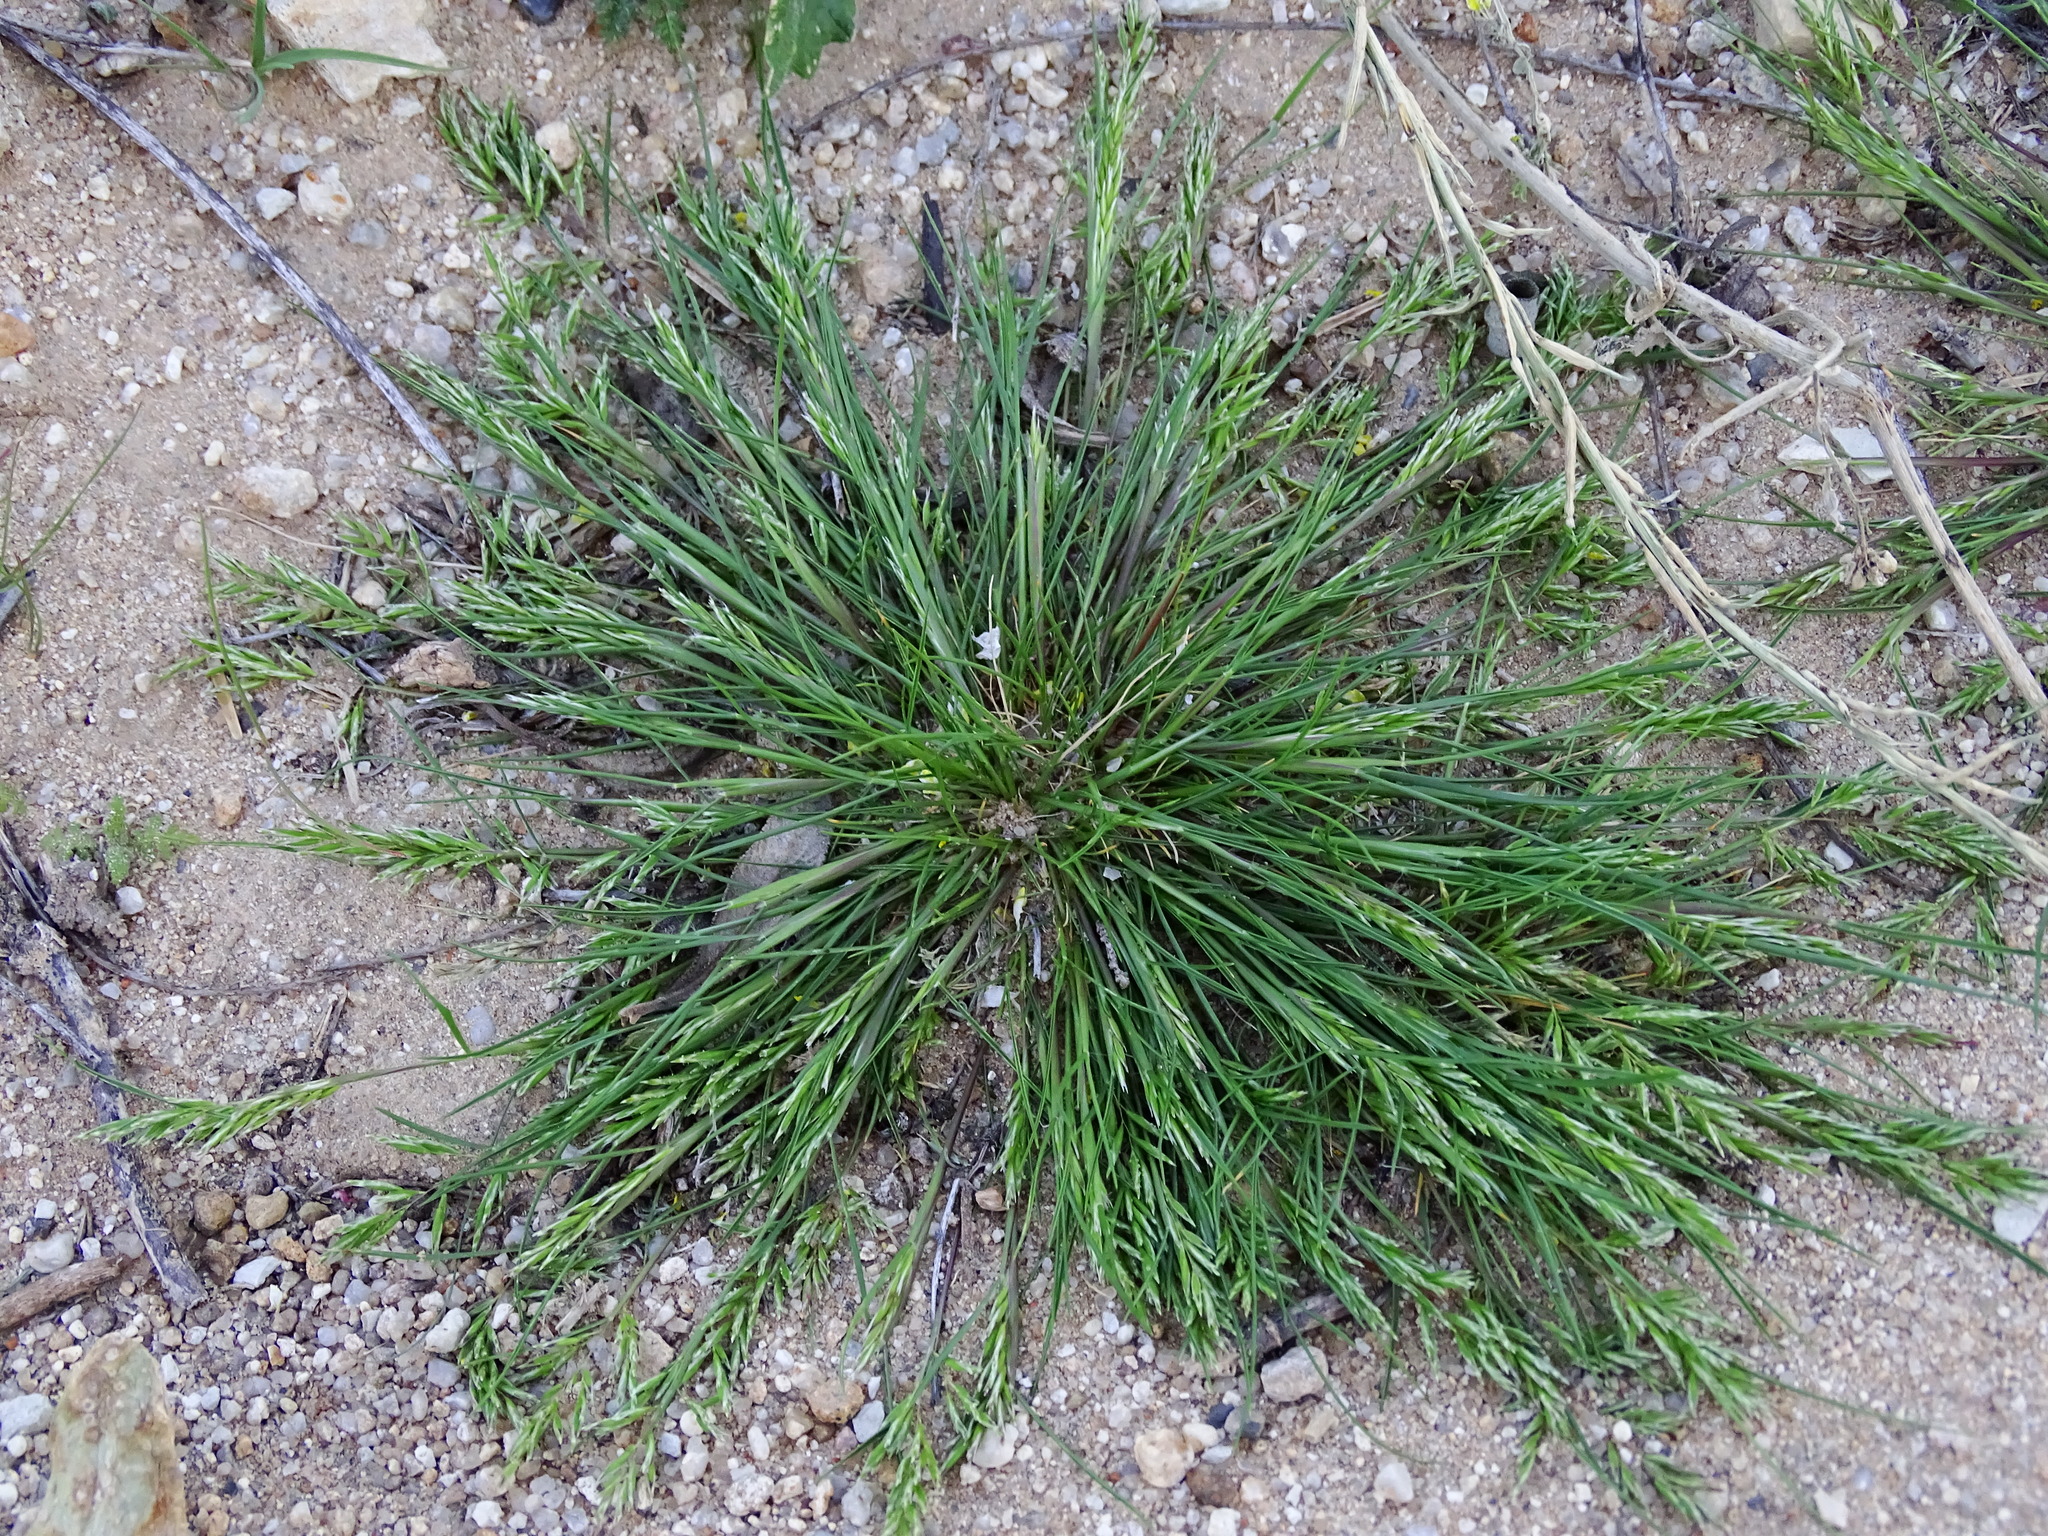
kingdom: Plantae
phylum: Tracheophyta
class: Liliopsida
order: Poales
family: Poaceae
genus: Schismus
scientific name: Schismus barbatus
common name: Kelch-grass
